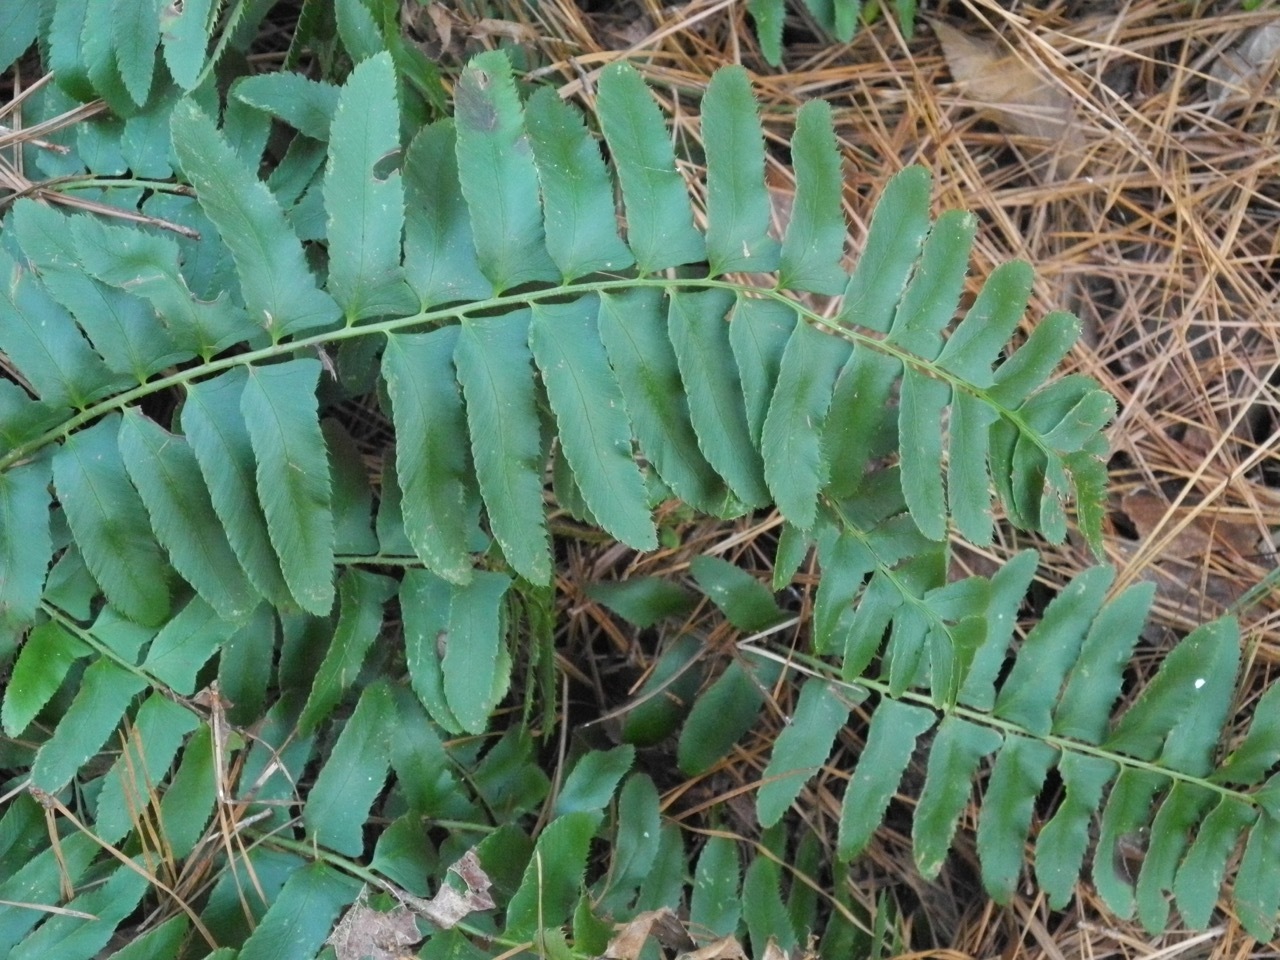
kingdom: Plantae
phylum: Tracheophyta
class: Polypodiopsida
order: Polypodiales
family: Dryopteridaceae
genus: Polystichum
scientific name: Polystichum acrostichoides
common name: Christmas fern
